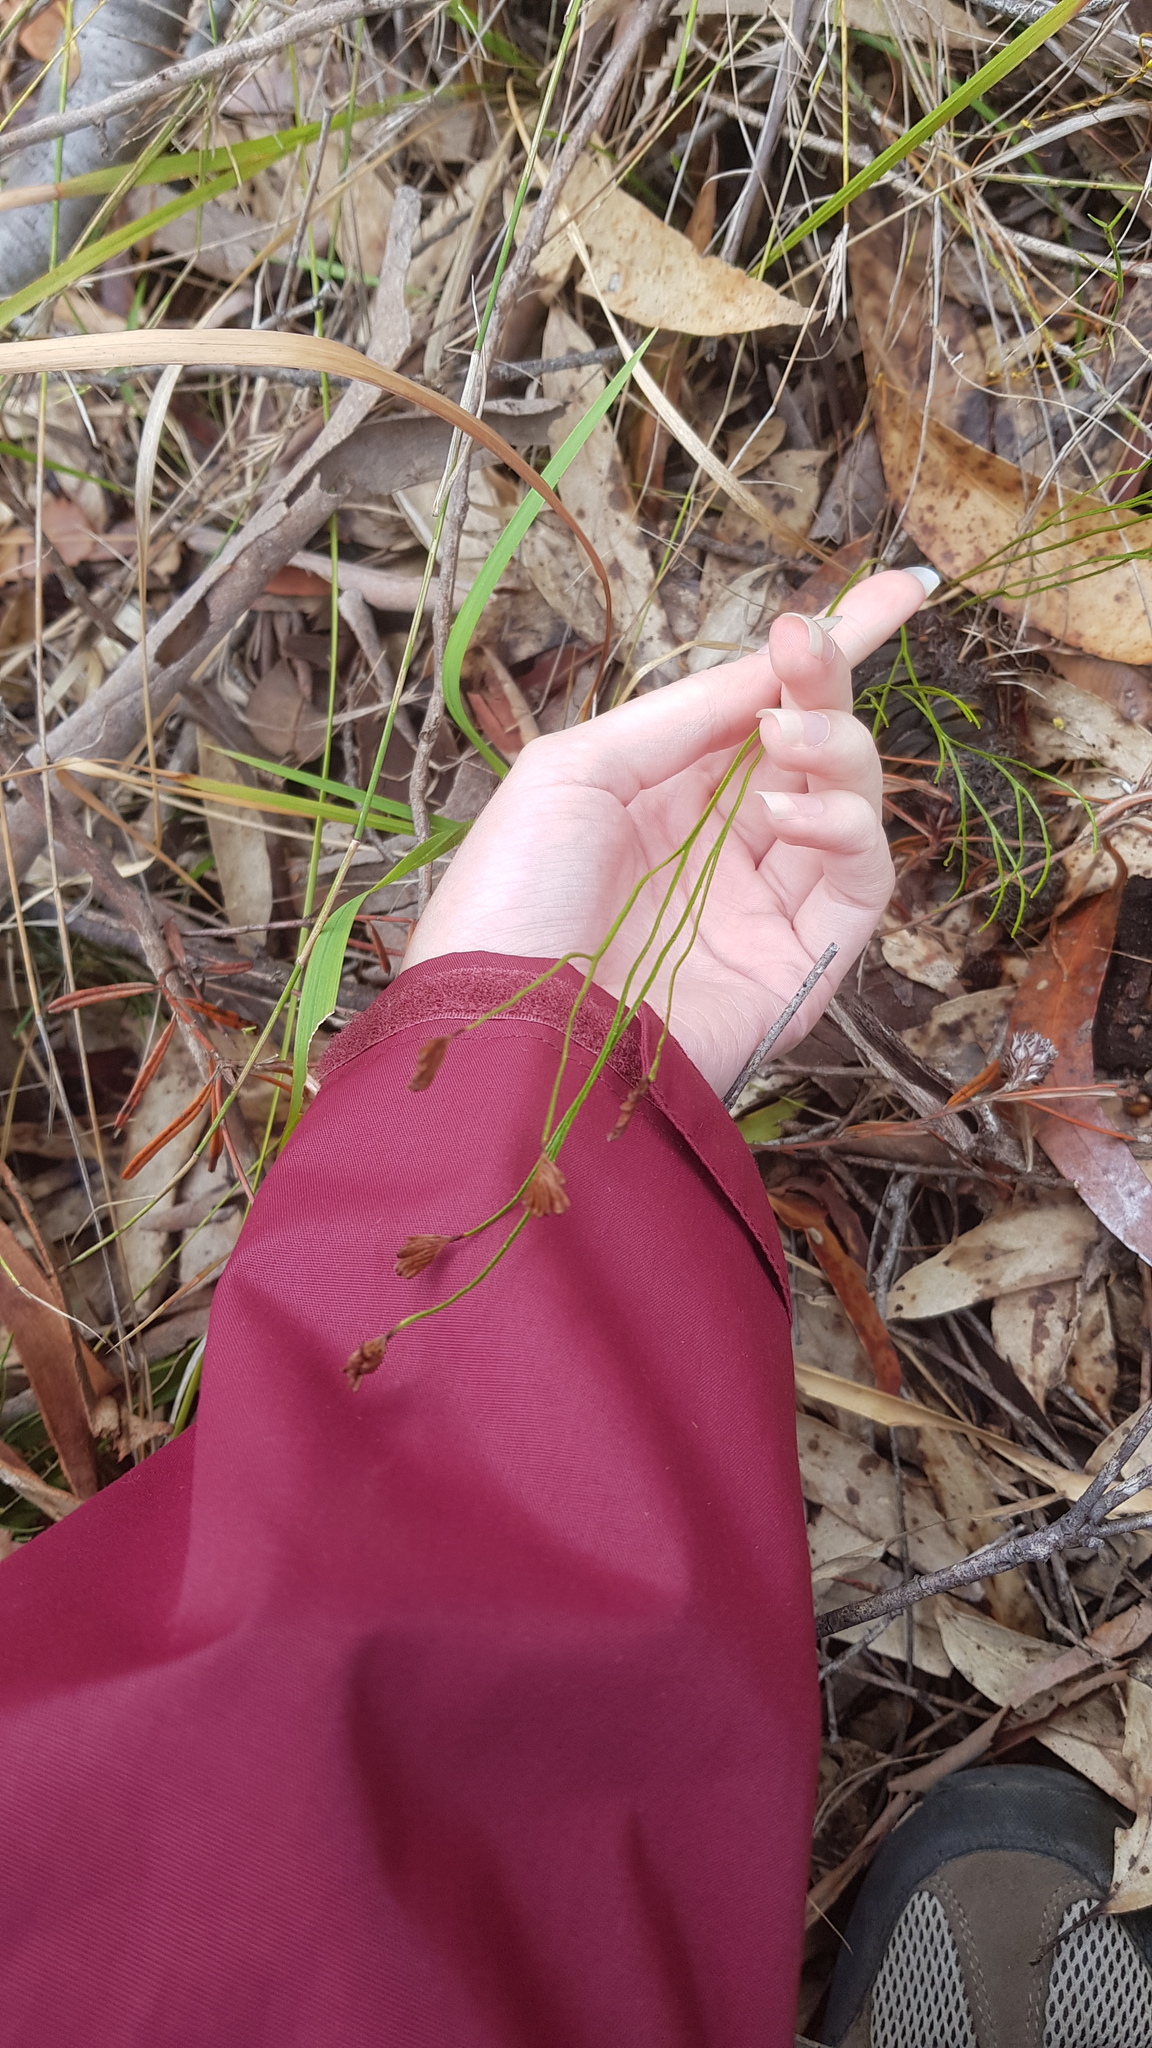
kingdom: Plantae
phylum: Tracheophyta
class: Polypodiopsida
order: Schizaeales
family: Schizaeaceae
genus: Schizaea
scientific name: Schizaea bifida
